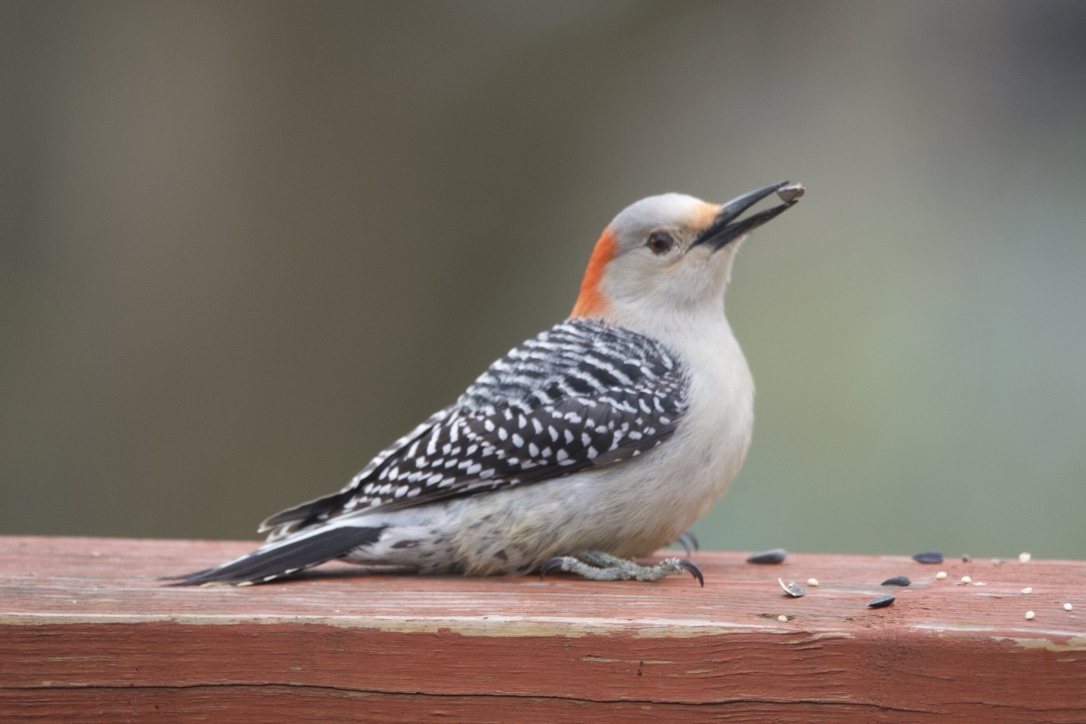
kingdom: Animalia
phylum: Chordata
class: Aves
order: Piciformes
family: Picidae
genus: Melanerpes
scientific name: Melanerpes carolinus
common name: Red-bellied woodpecker
